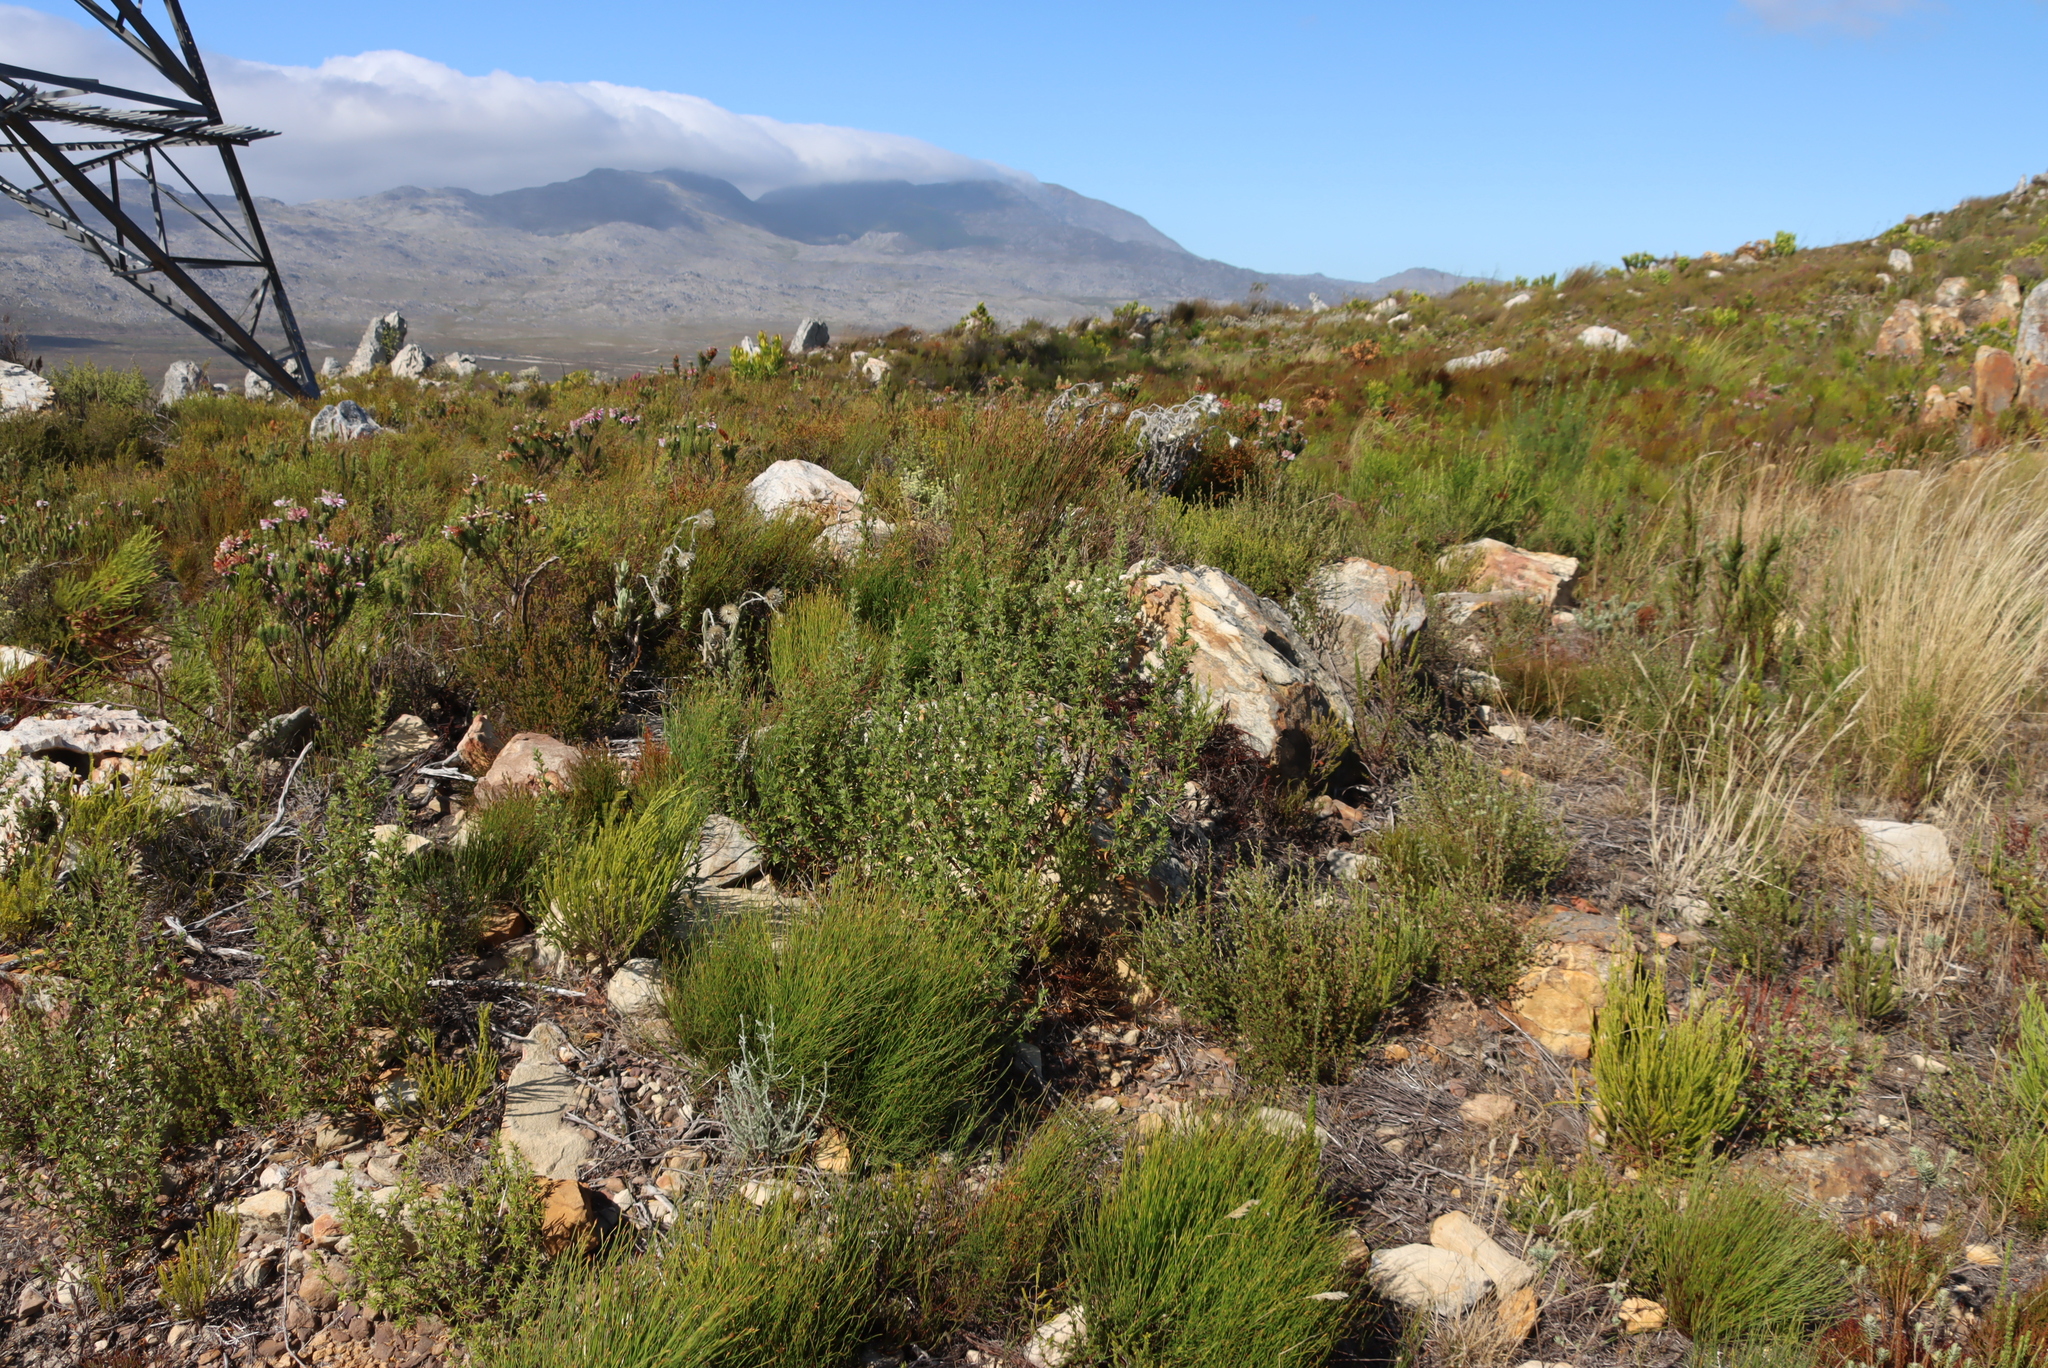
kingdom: Plantae
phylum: Tracheophyta
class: Magnoliopsida
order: Rosales
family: Rosaceae
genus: Cliffortia
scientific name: Cliffortia ruscifolia
